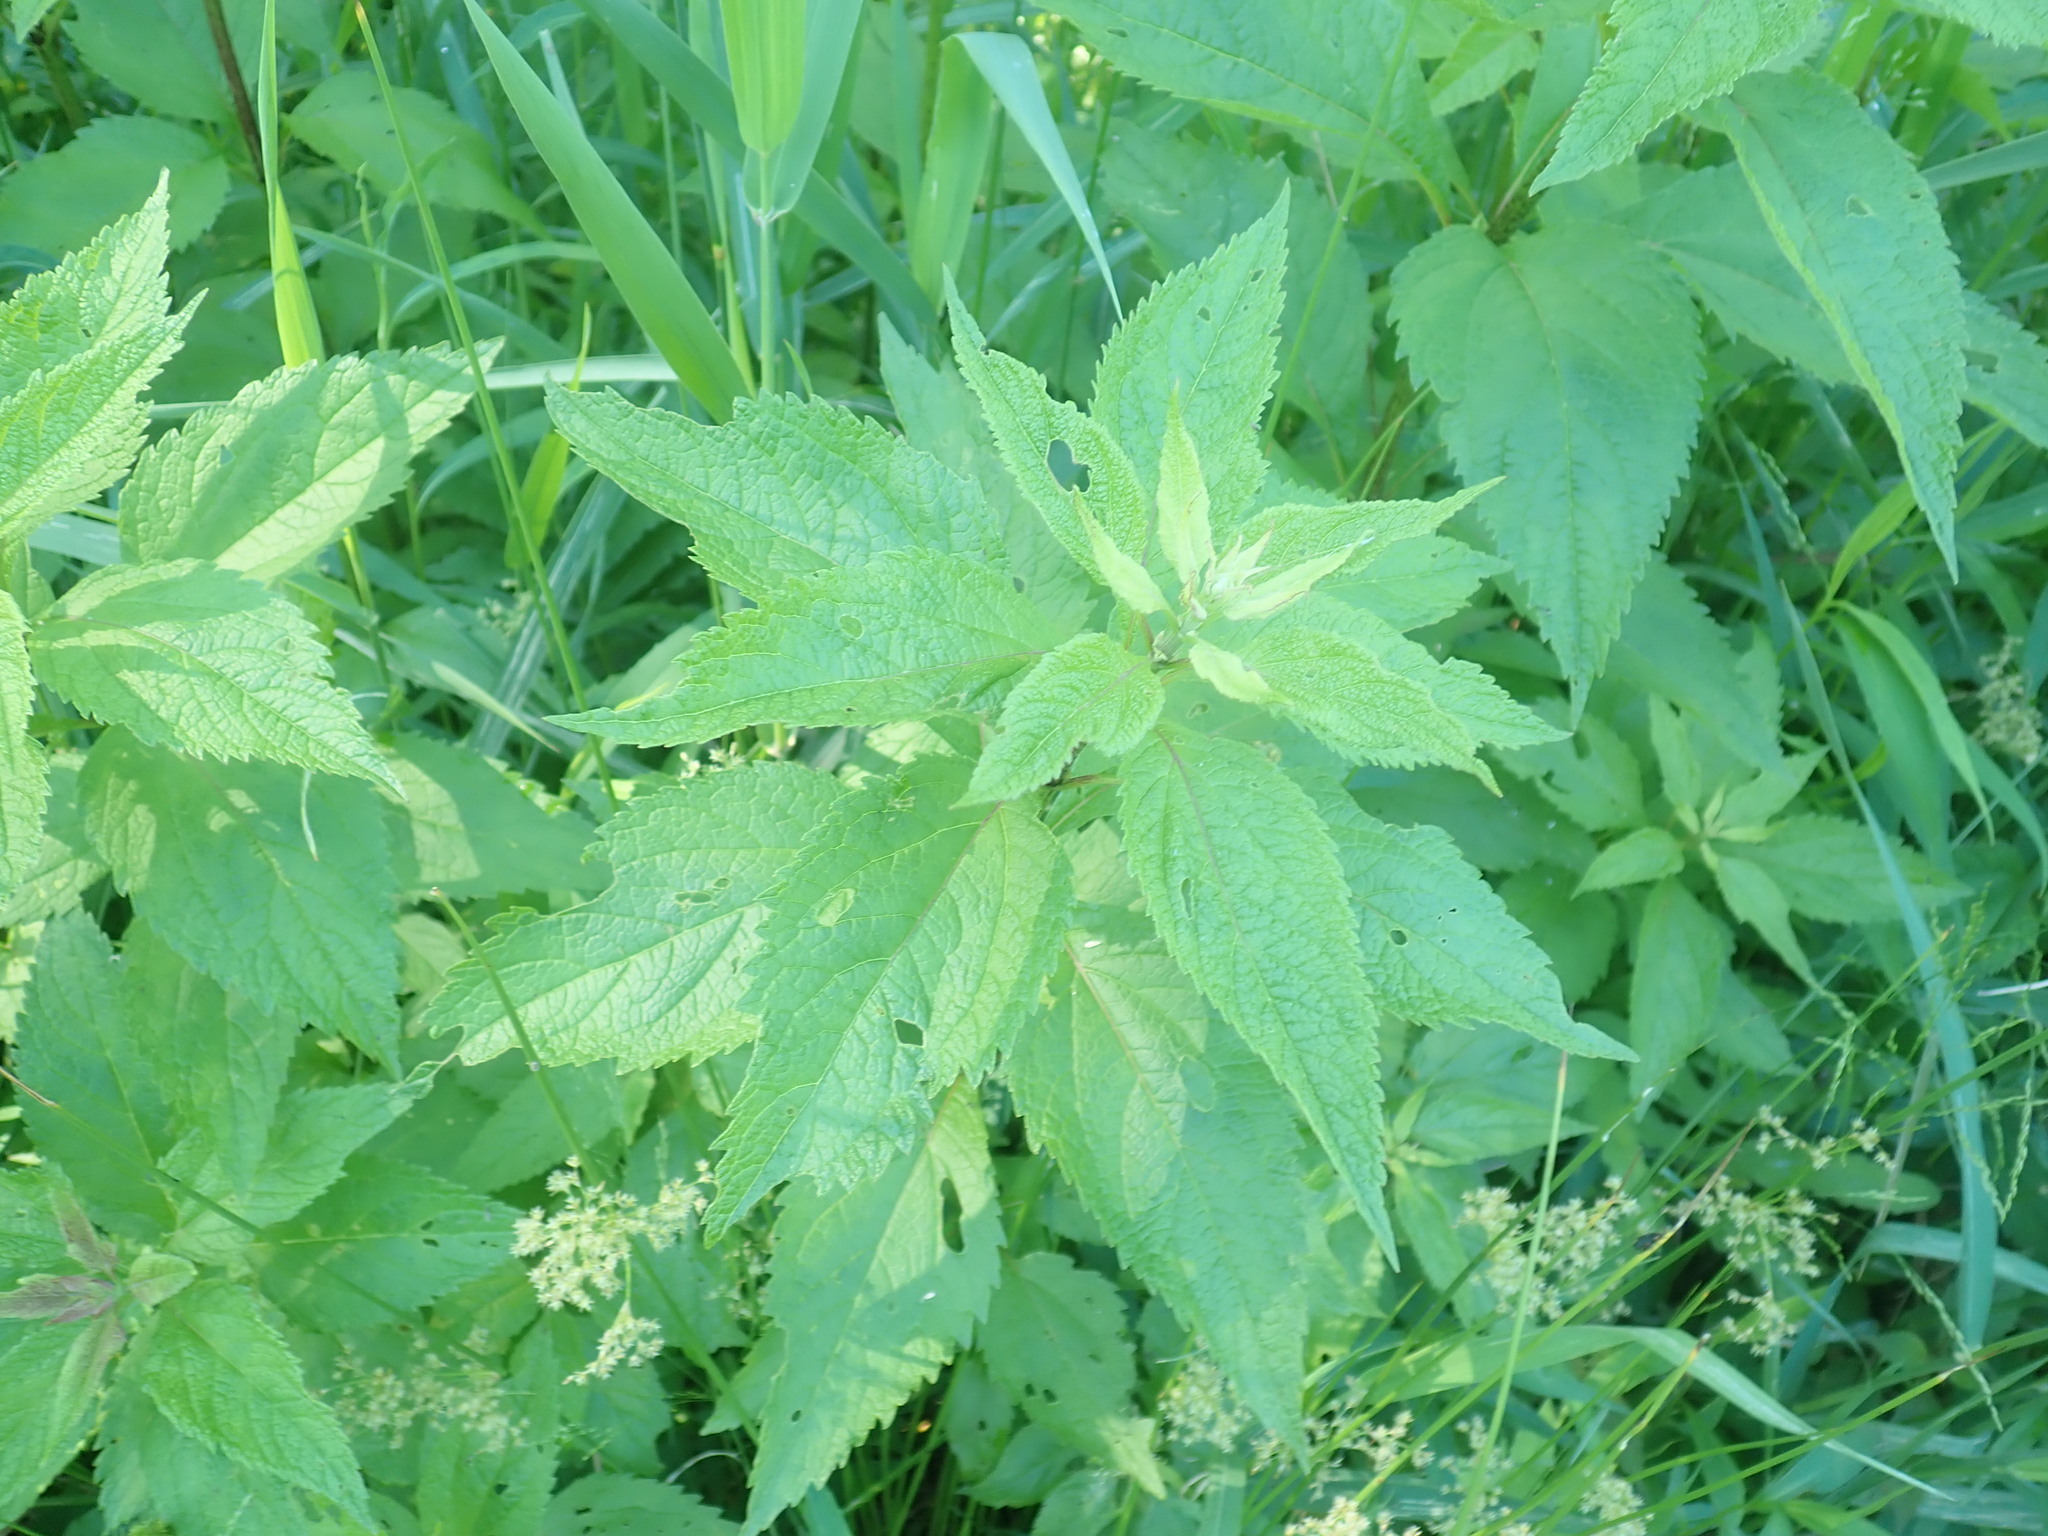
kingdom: Plantae
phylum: Tracheophyta
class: Magnoliopsida
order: Asterales
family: Asteraceae
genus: Eutrochium
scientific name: Eutrochium
